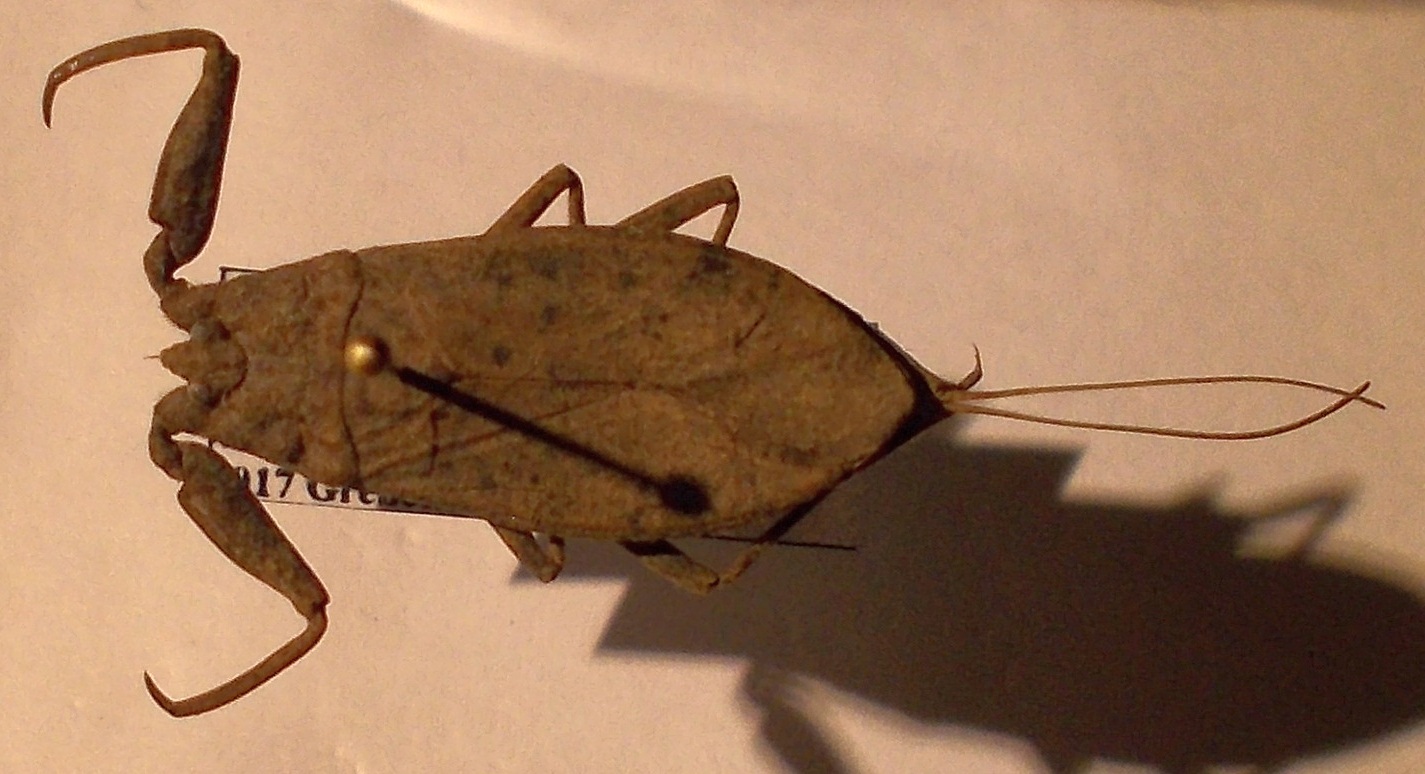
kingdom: Animalia
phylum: Arthropoda
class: Insecta
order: Hemiptera
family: Nepidae
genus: Nepa
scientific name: Nepa cinerea
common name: Water scorpion
